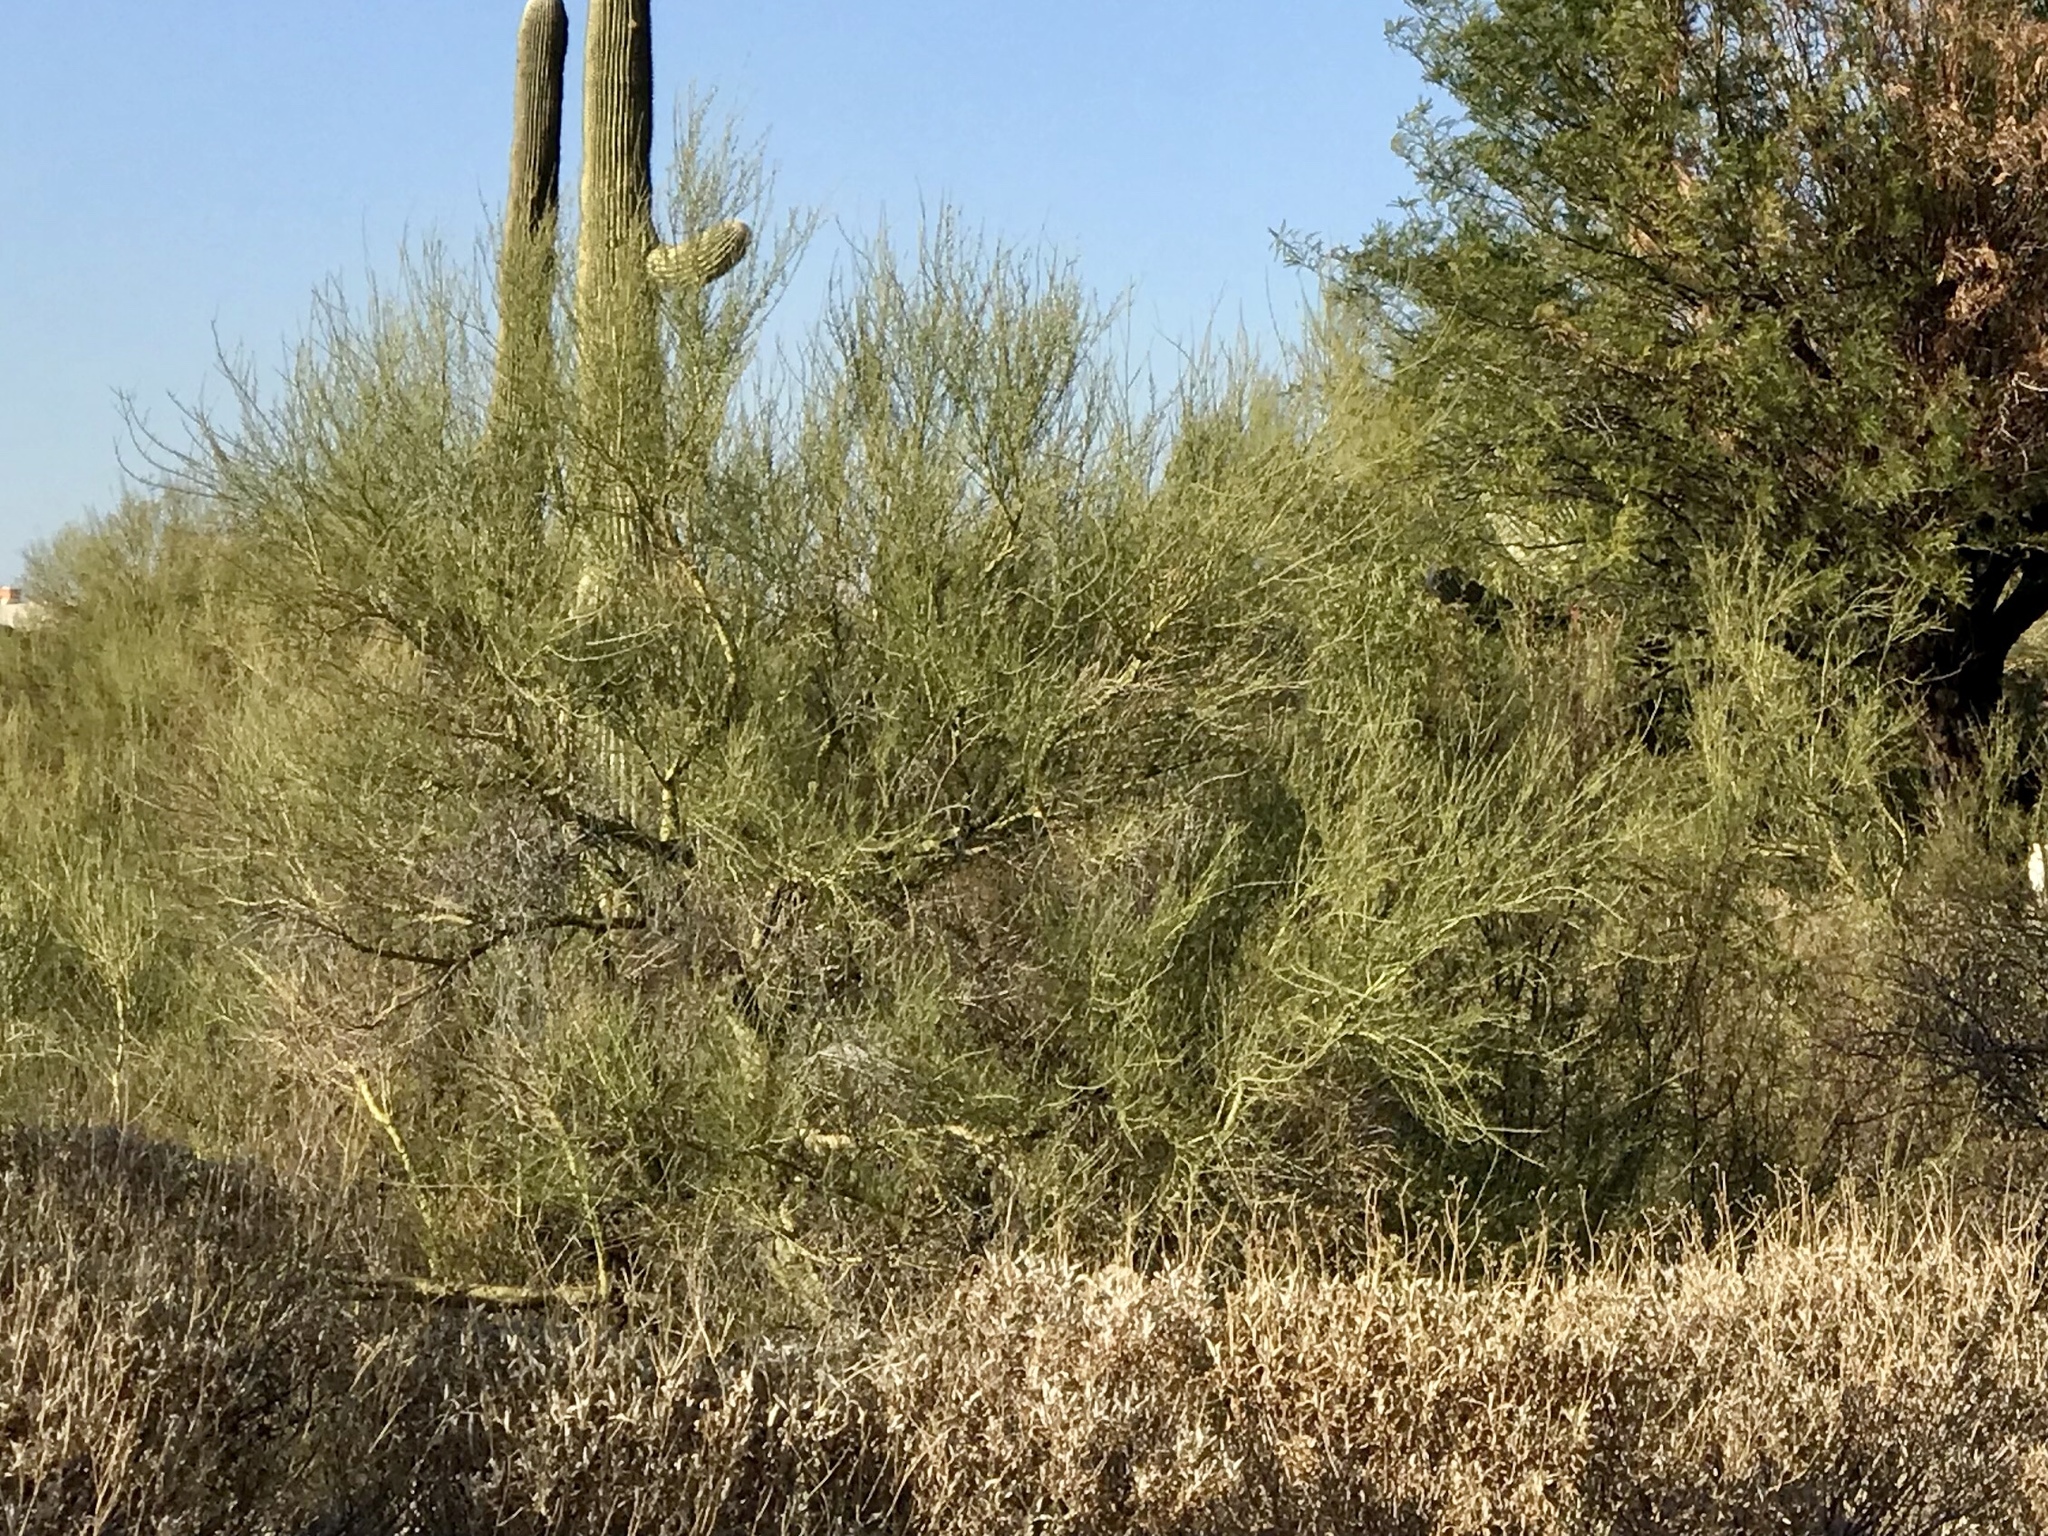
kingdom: Plantae
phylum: Tracheophyta
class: Magnoliopsida
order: Fabales
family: Fabaceae
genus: Parkinsonia
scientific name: Parkinsonia microphylla
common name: Yellow paloverde
